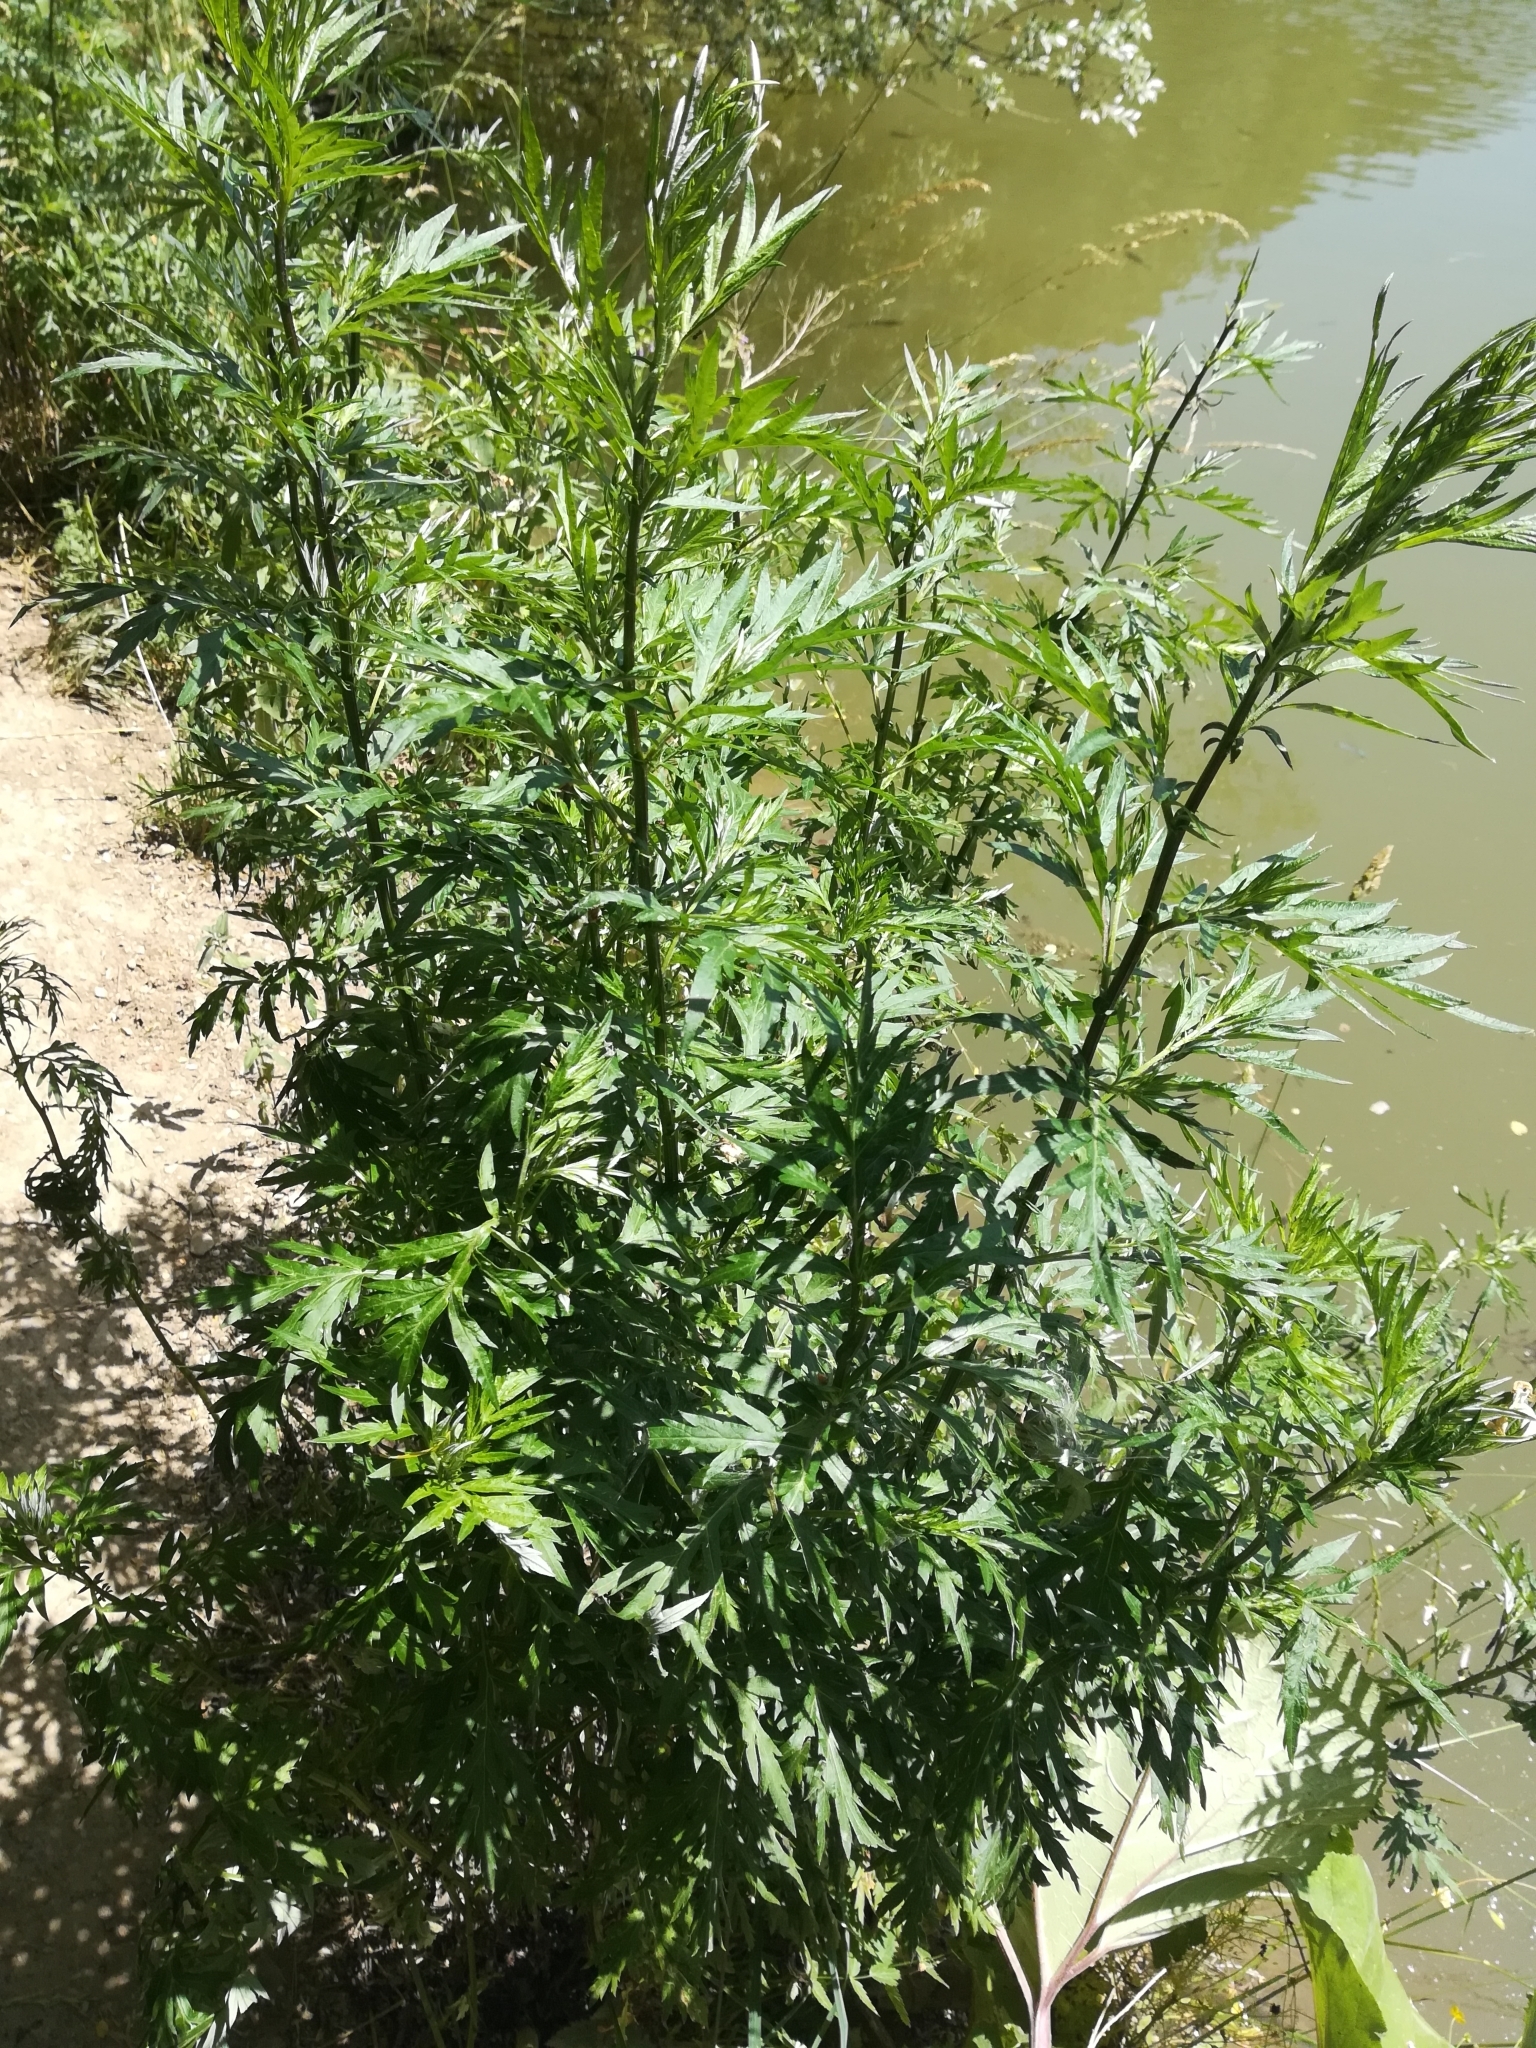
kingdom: Plantae
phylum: Tracheophyta
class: Magnoliopsida
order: Asterales
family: Asteraceae
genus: Artemisia
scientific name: Artemisia vulgaris
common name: Mugwort
